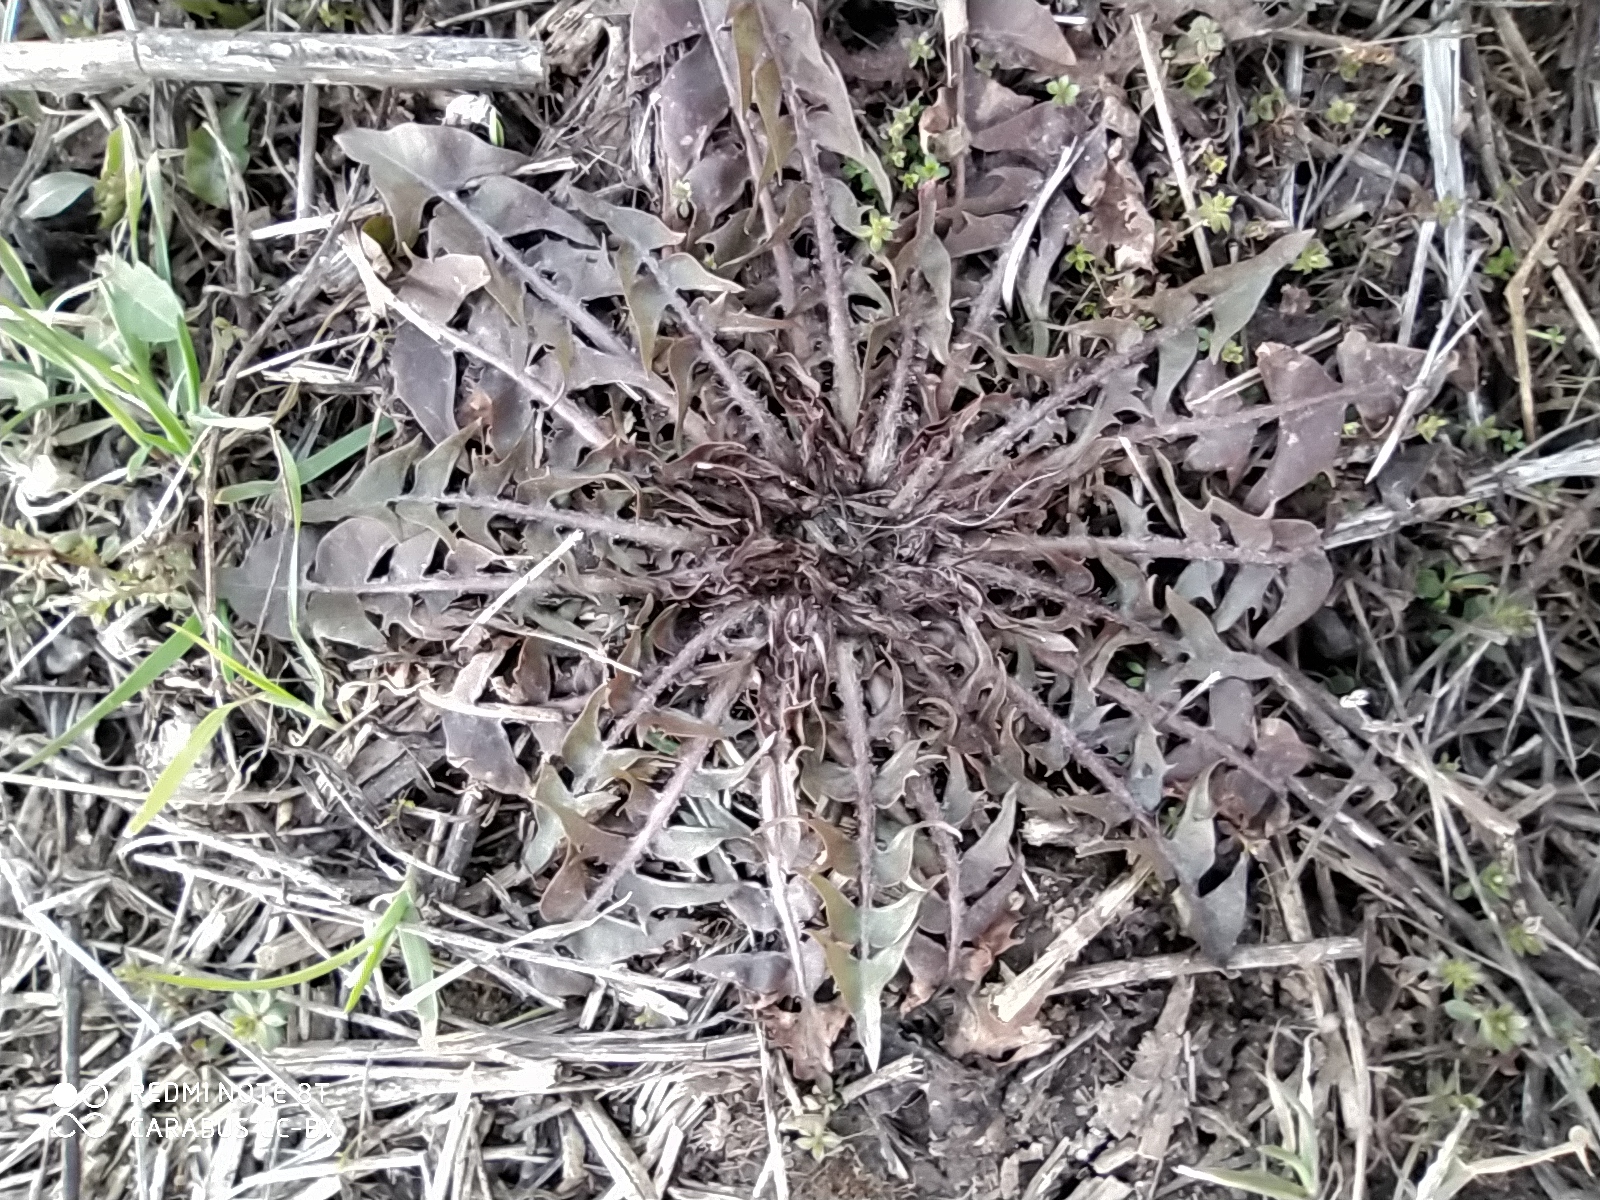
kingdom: Plantae
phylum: Tracheophyta
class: Magnoliopsida
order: Asterales
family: Asteraceae
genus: Taraxacum
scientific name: Taraxacum officinale
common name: Common dandelion
